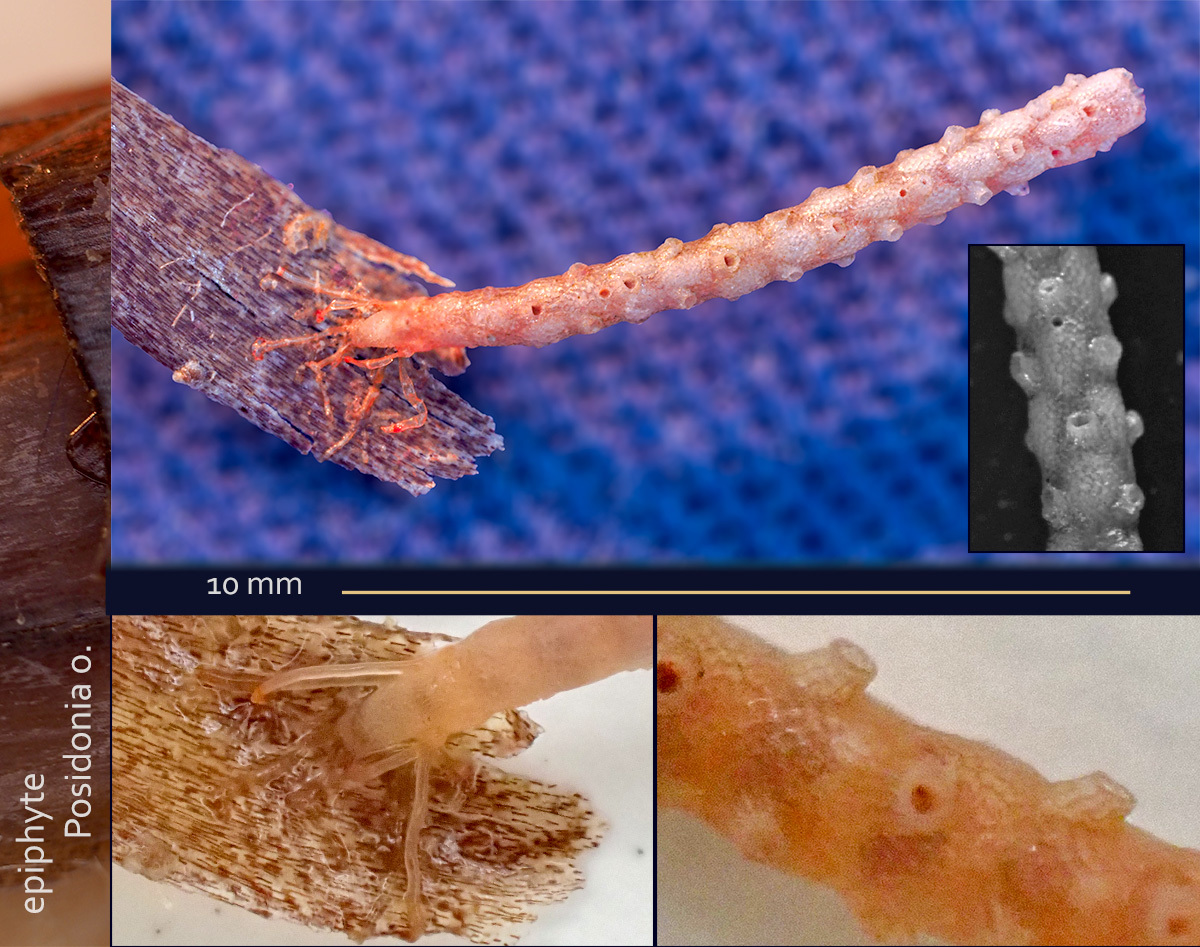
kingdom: Animalia
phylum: Bryozoa
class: Gymnolaemata
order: Cheilostomatida
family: Margarettidae
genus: Margaretta
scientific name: Margaretta cereoides
